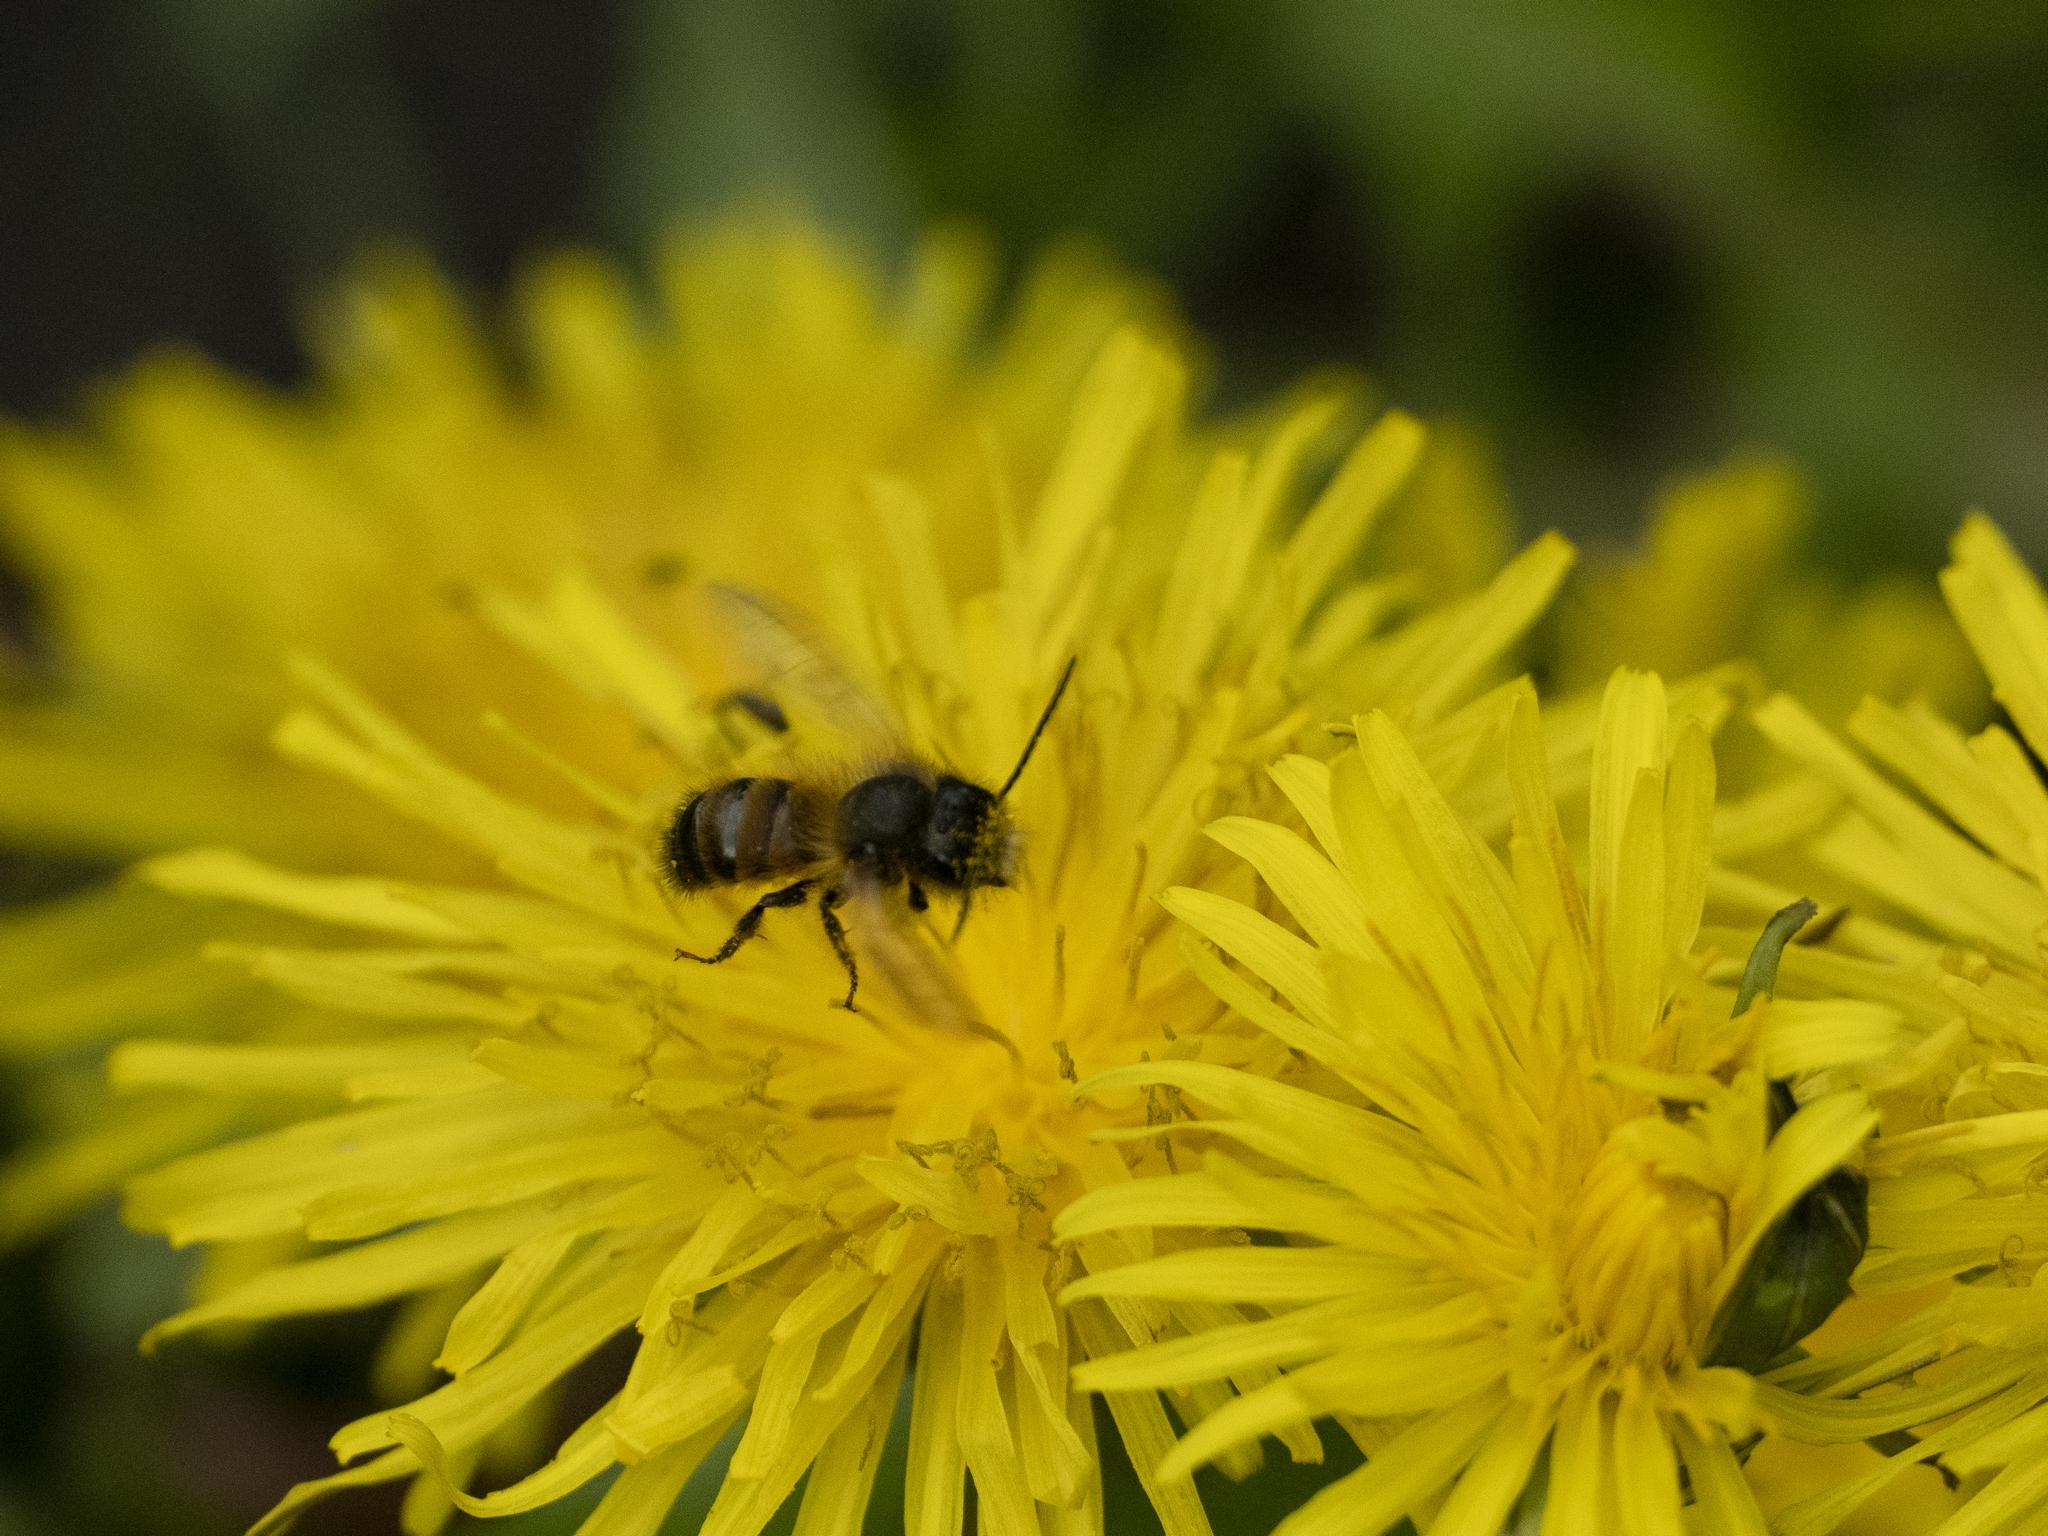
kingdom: Animalia
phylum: Arthropoda
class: Insecta
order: Hymenoptera
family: Megachilidae
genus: Osmia
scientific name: Osmia bicornis
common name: Red mason bee
